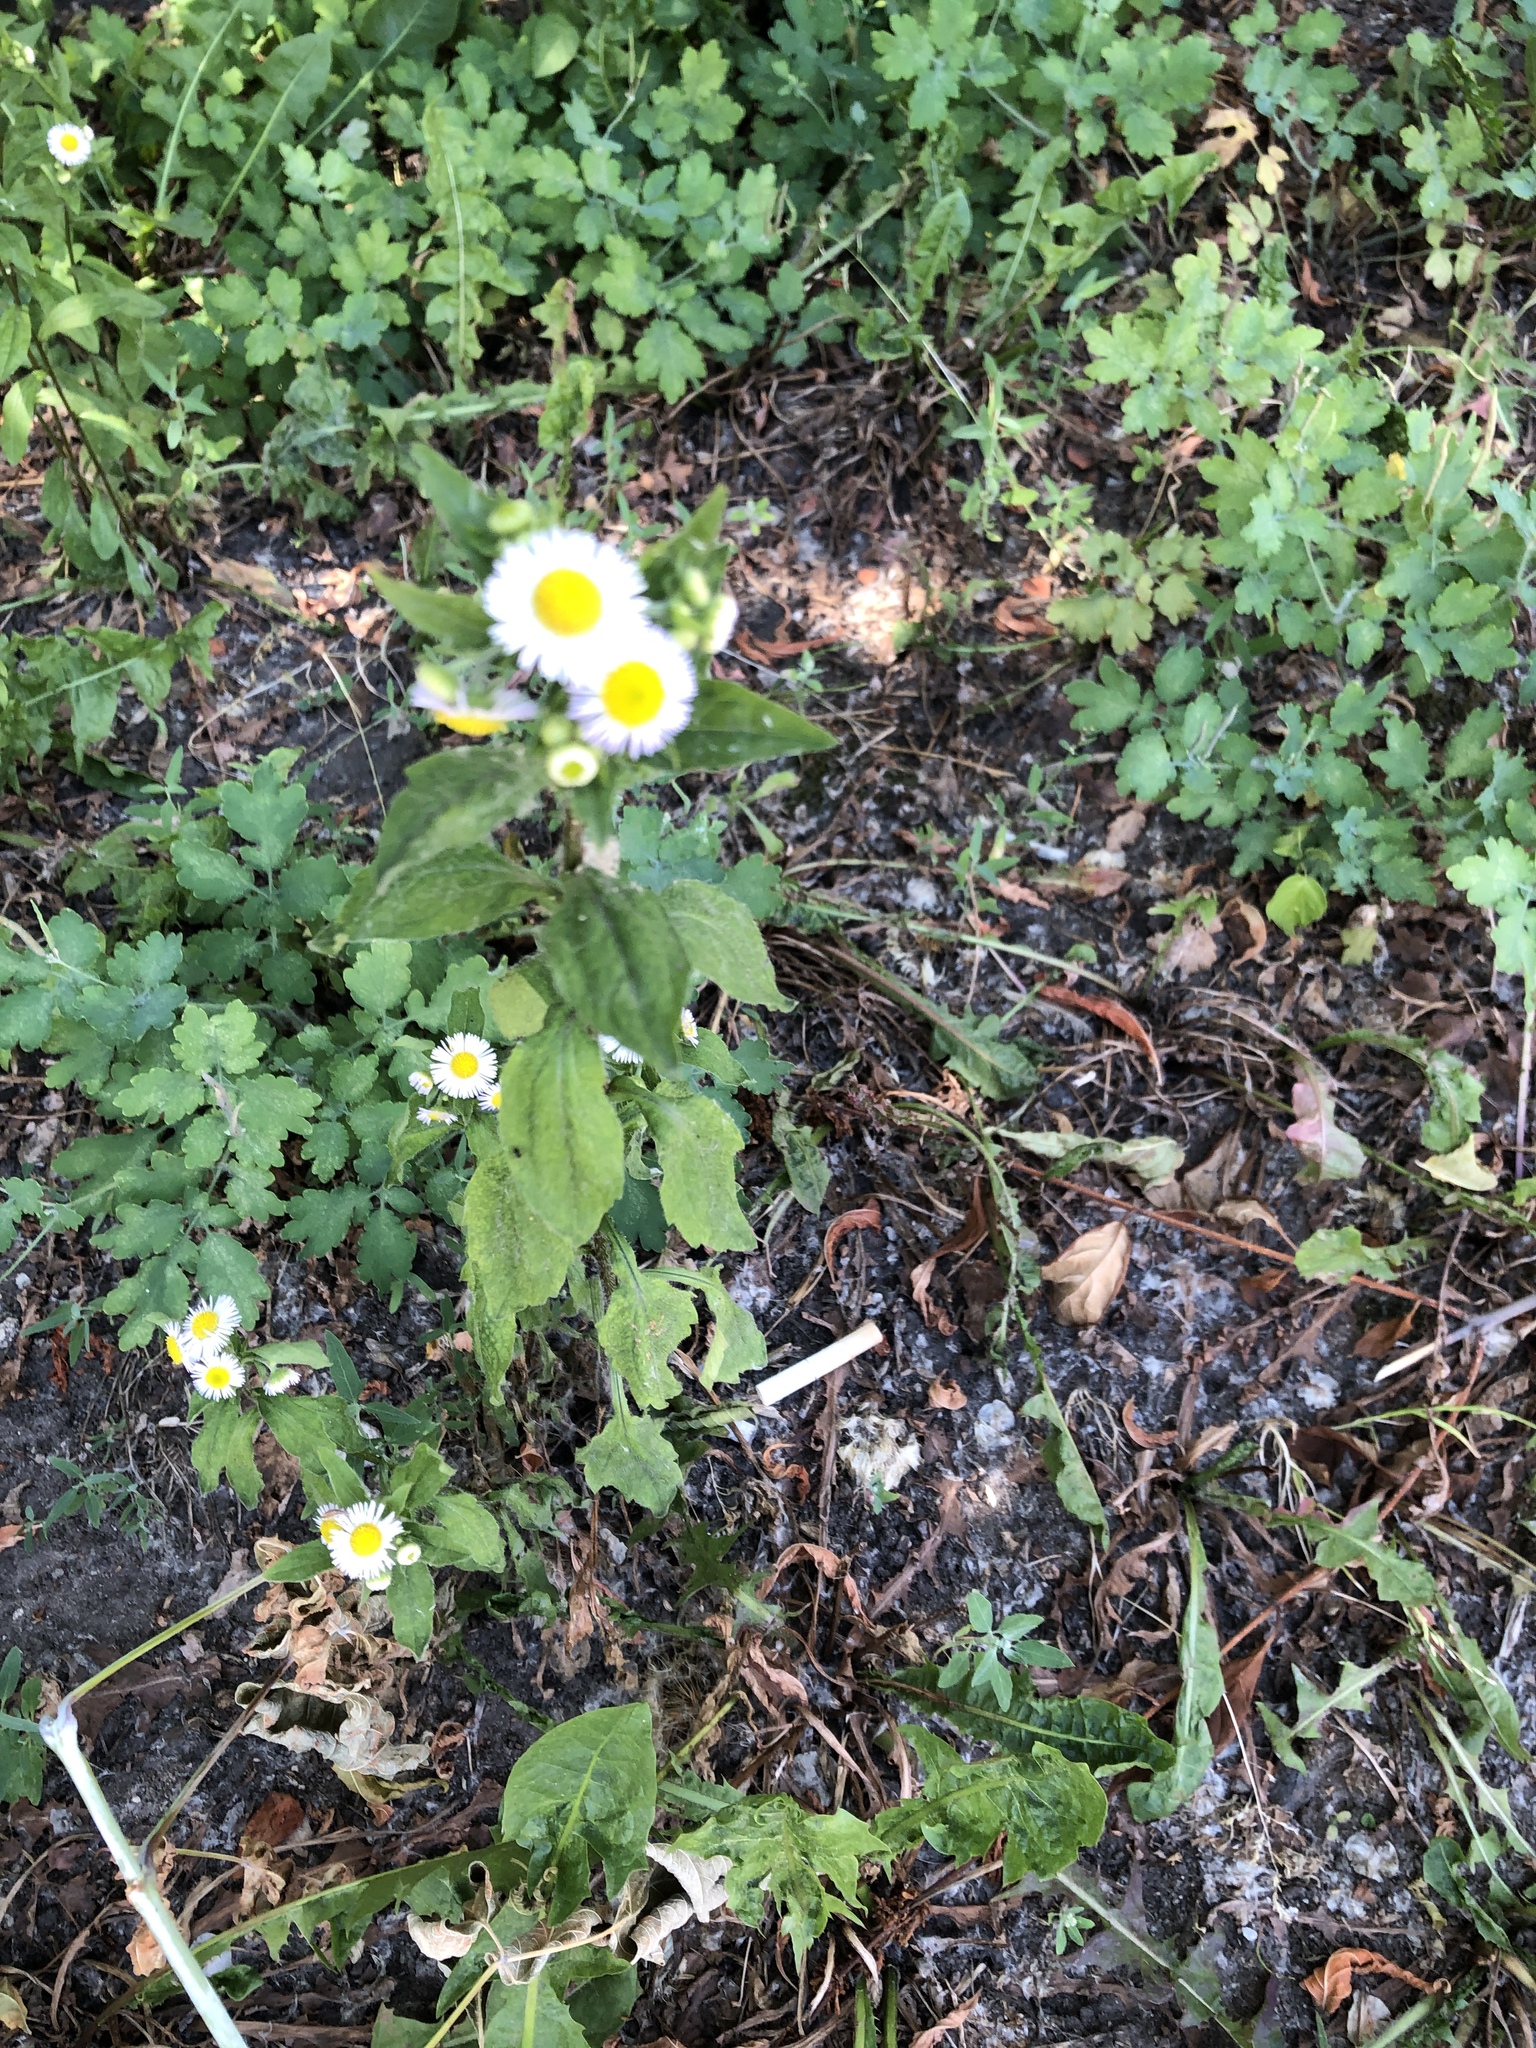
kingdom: Plantae
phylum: Tracheophyta
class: Magnoliopsida
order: Asterales
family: Asteraceae
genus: Erigeron
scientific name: Erigeron annuus
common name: Tall fleabane
